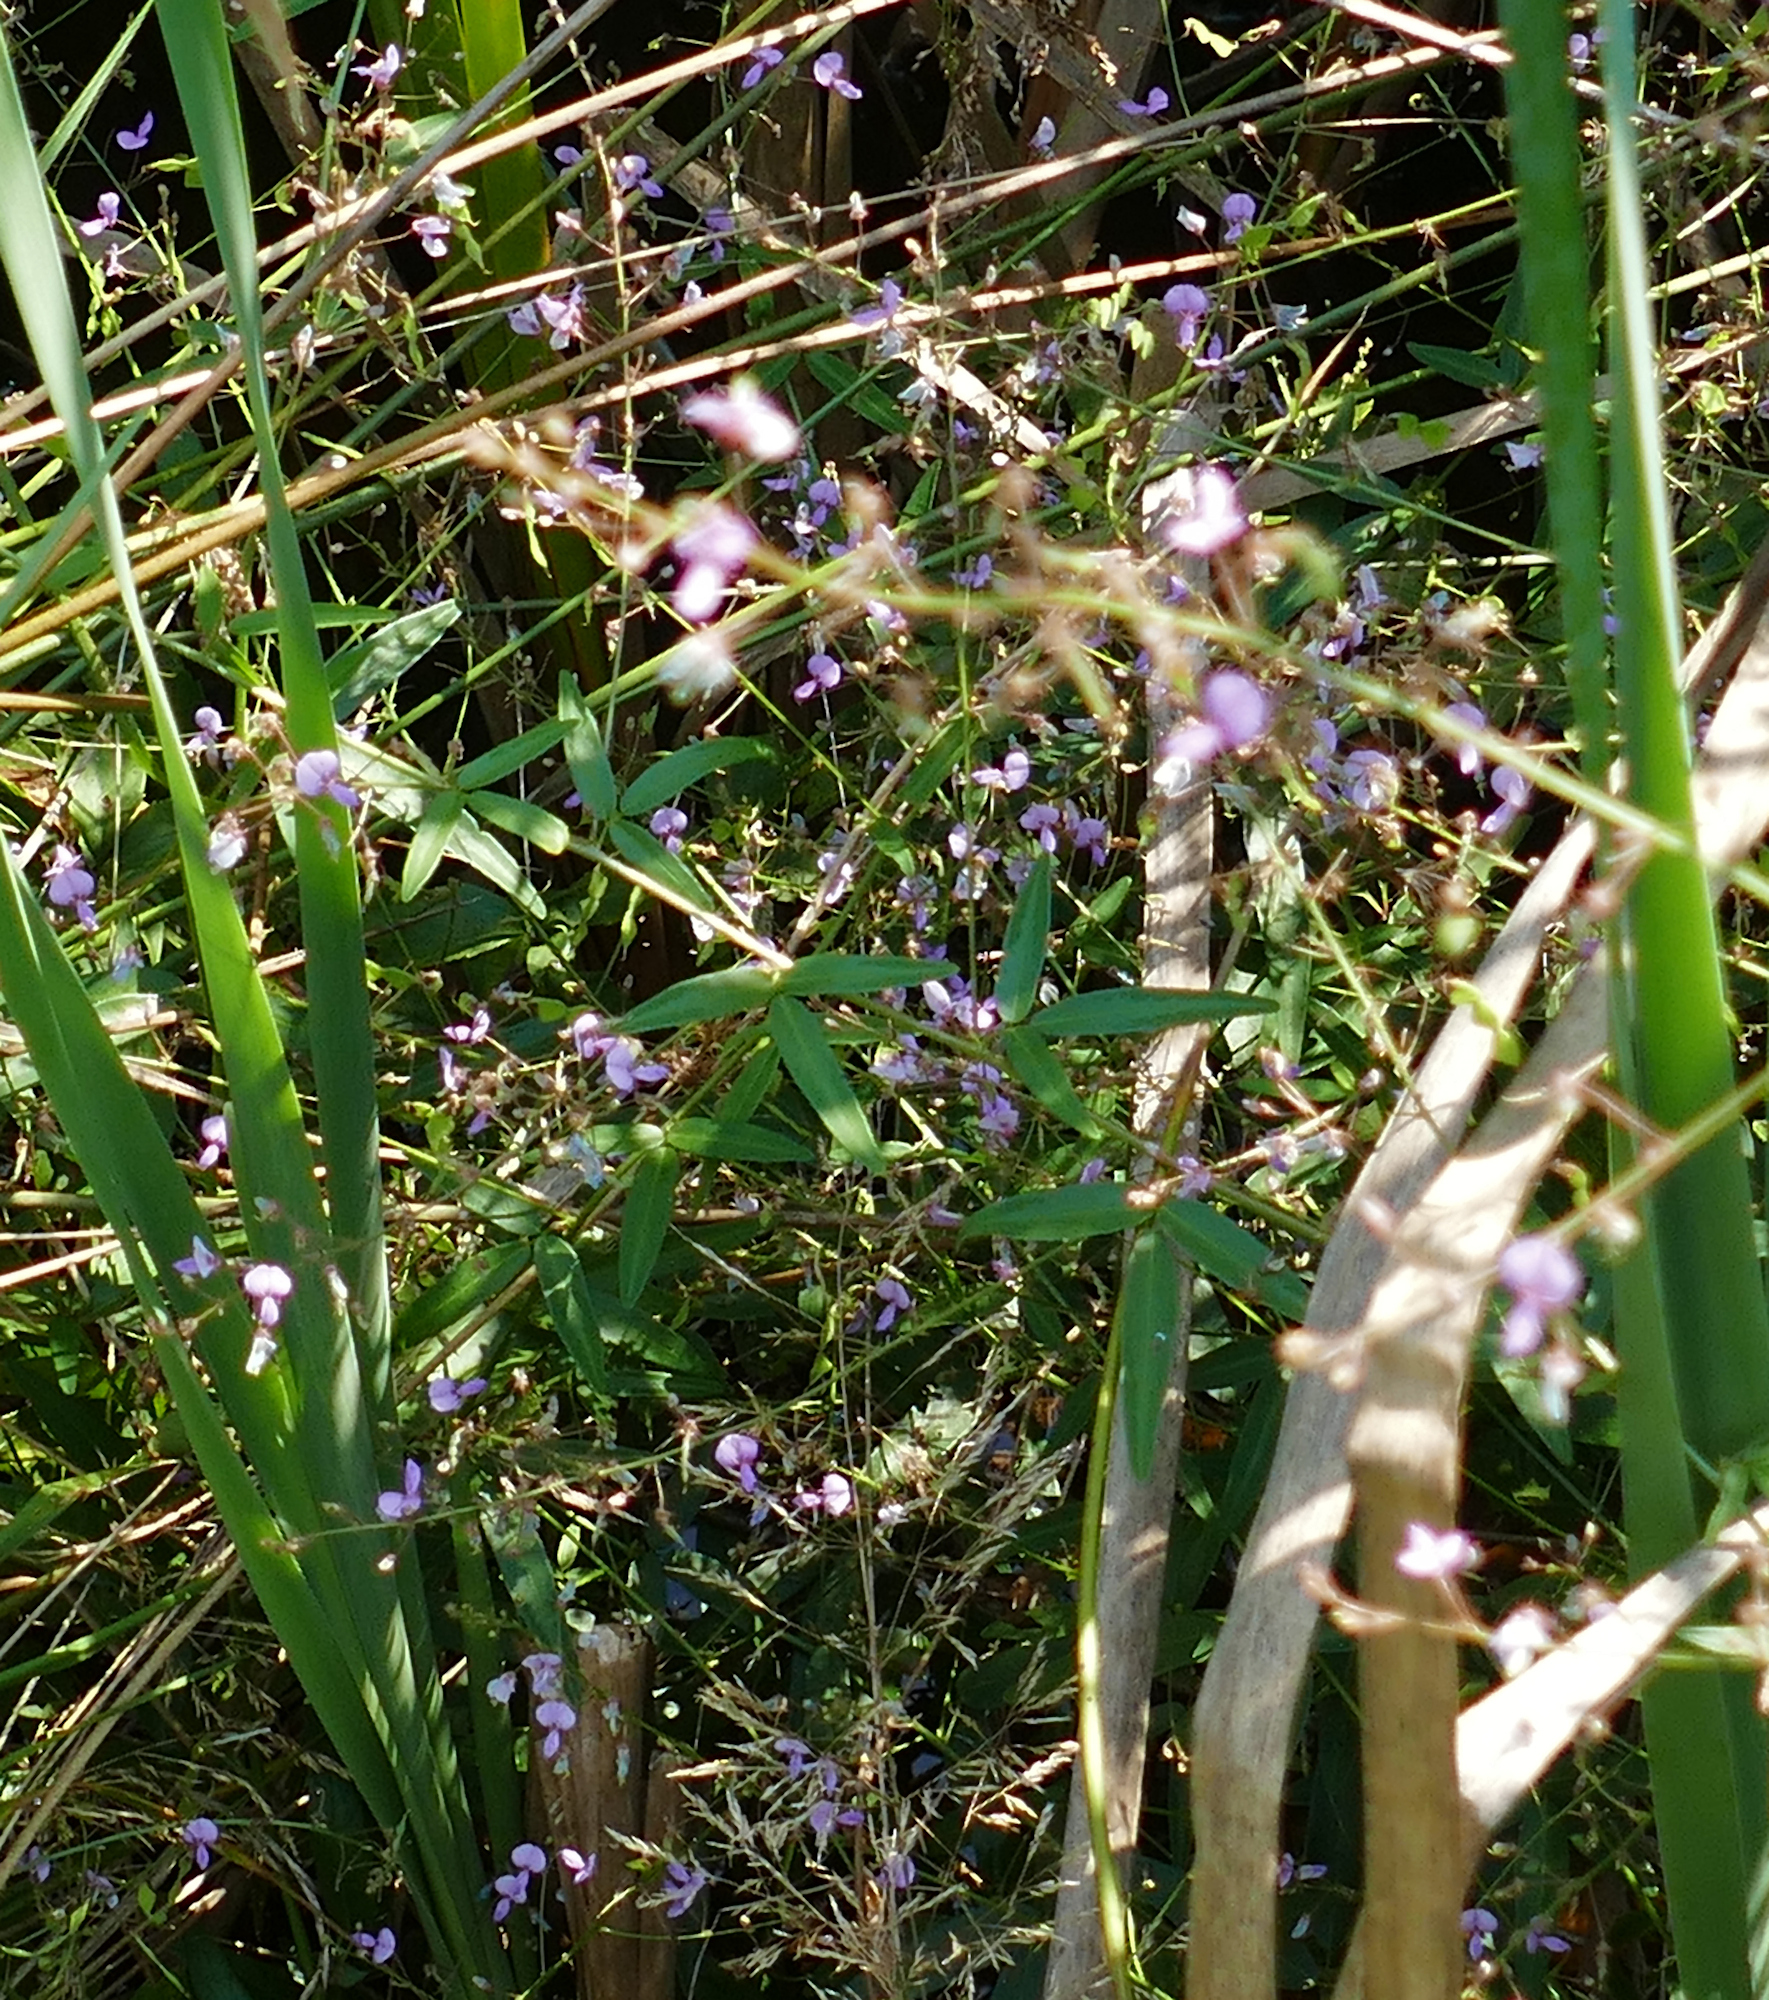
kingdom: Plantae
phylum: Tracheophyta
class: Magnoliopsida
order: Fabales
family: Fabaceae
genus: Desmodium
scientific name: Desmodium paniculatum
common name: Panicled tick-clover
